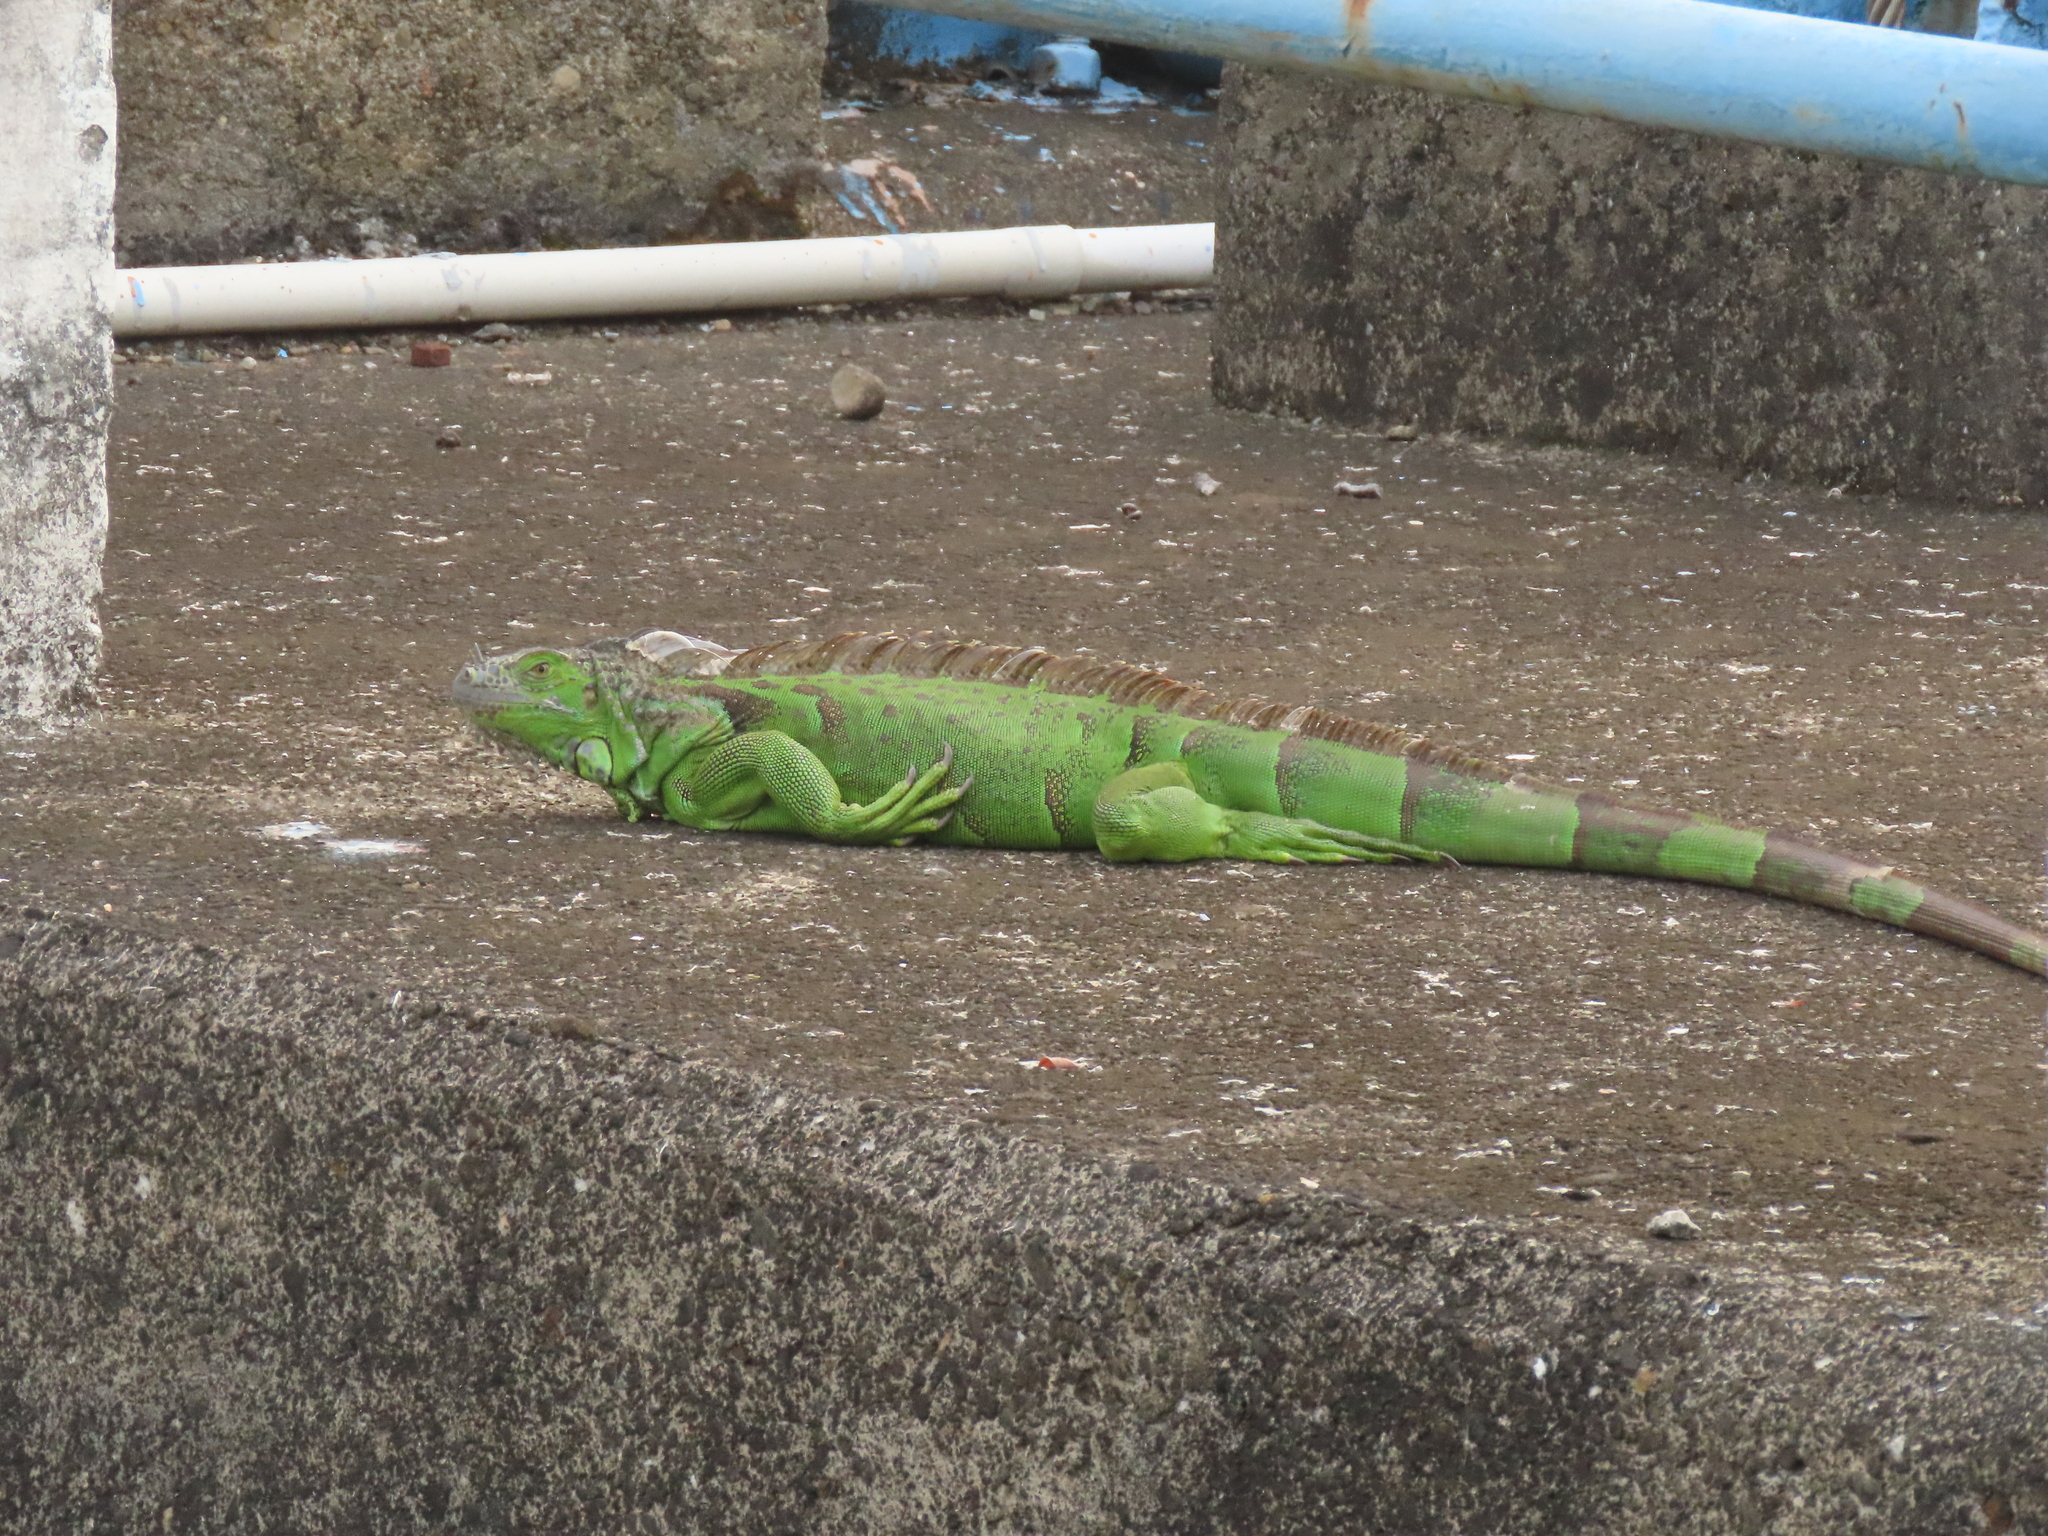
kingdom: Animalia
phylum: Chordata
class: Squamata
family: Iguanidae
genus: Iguana
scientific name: Iguana iguana
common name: Green iguana
